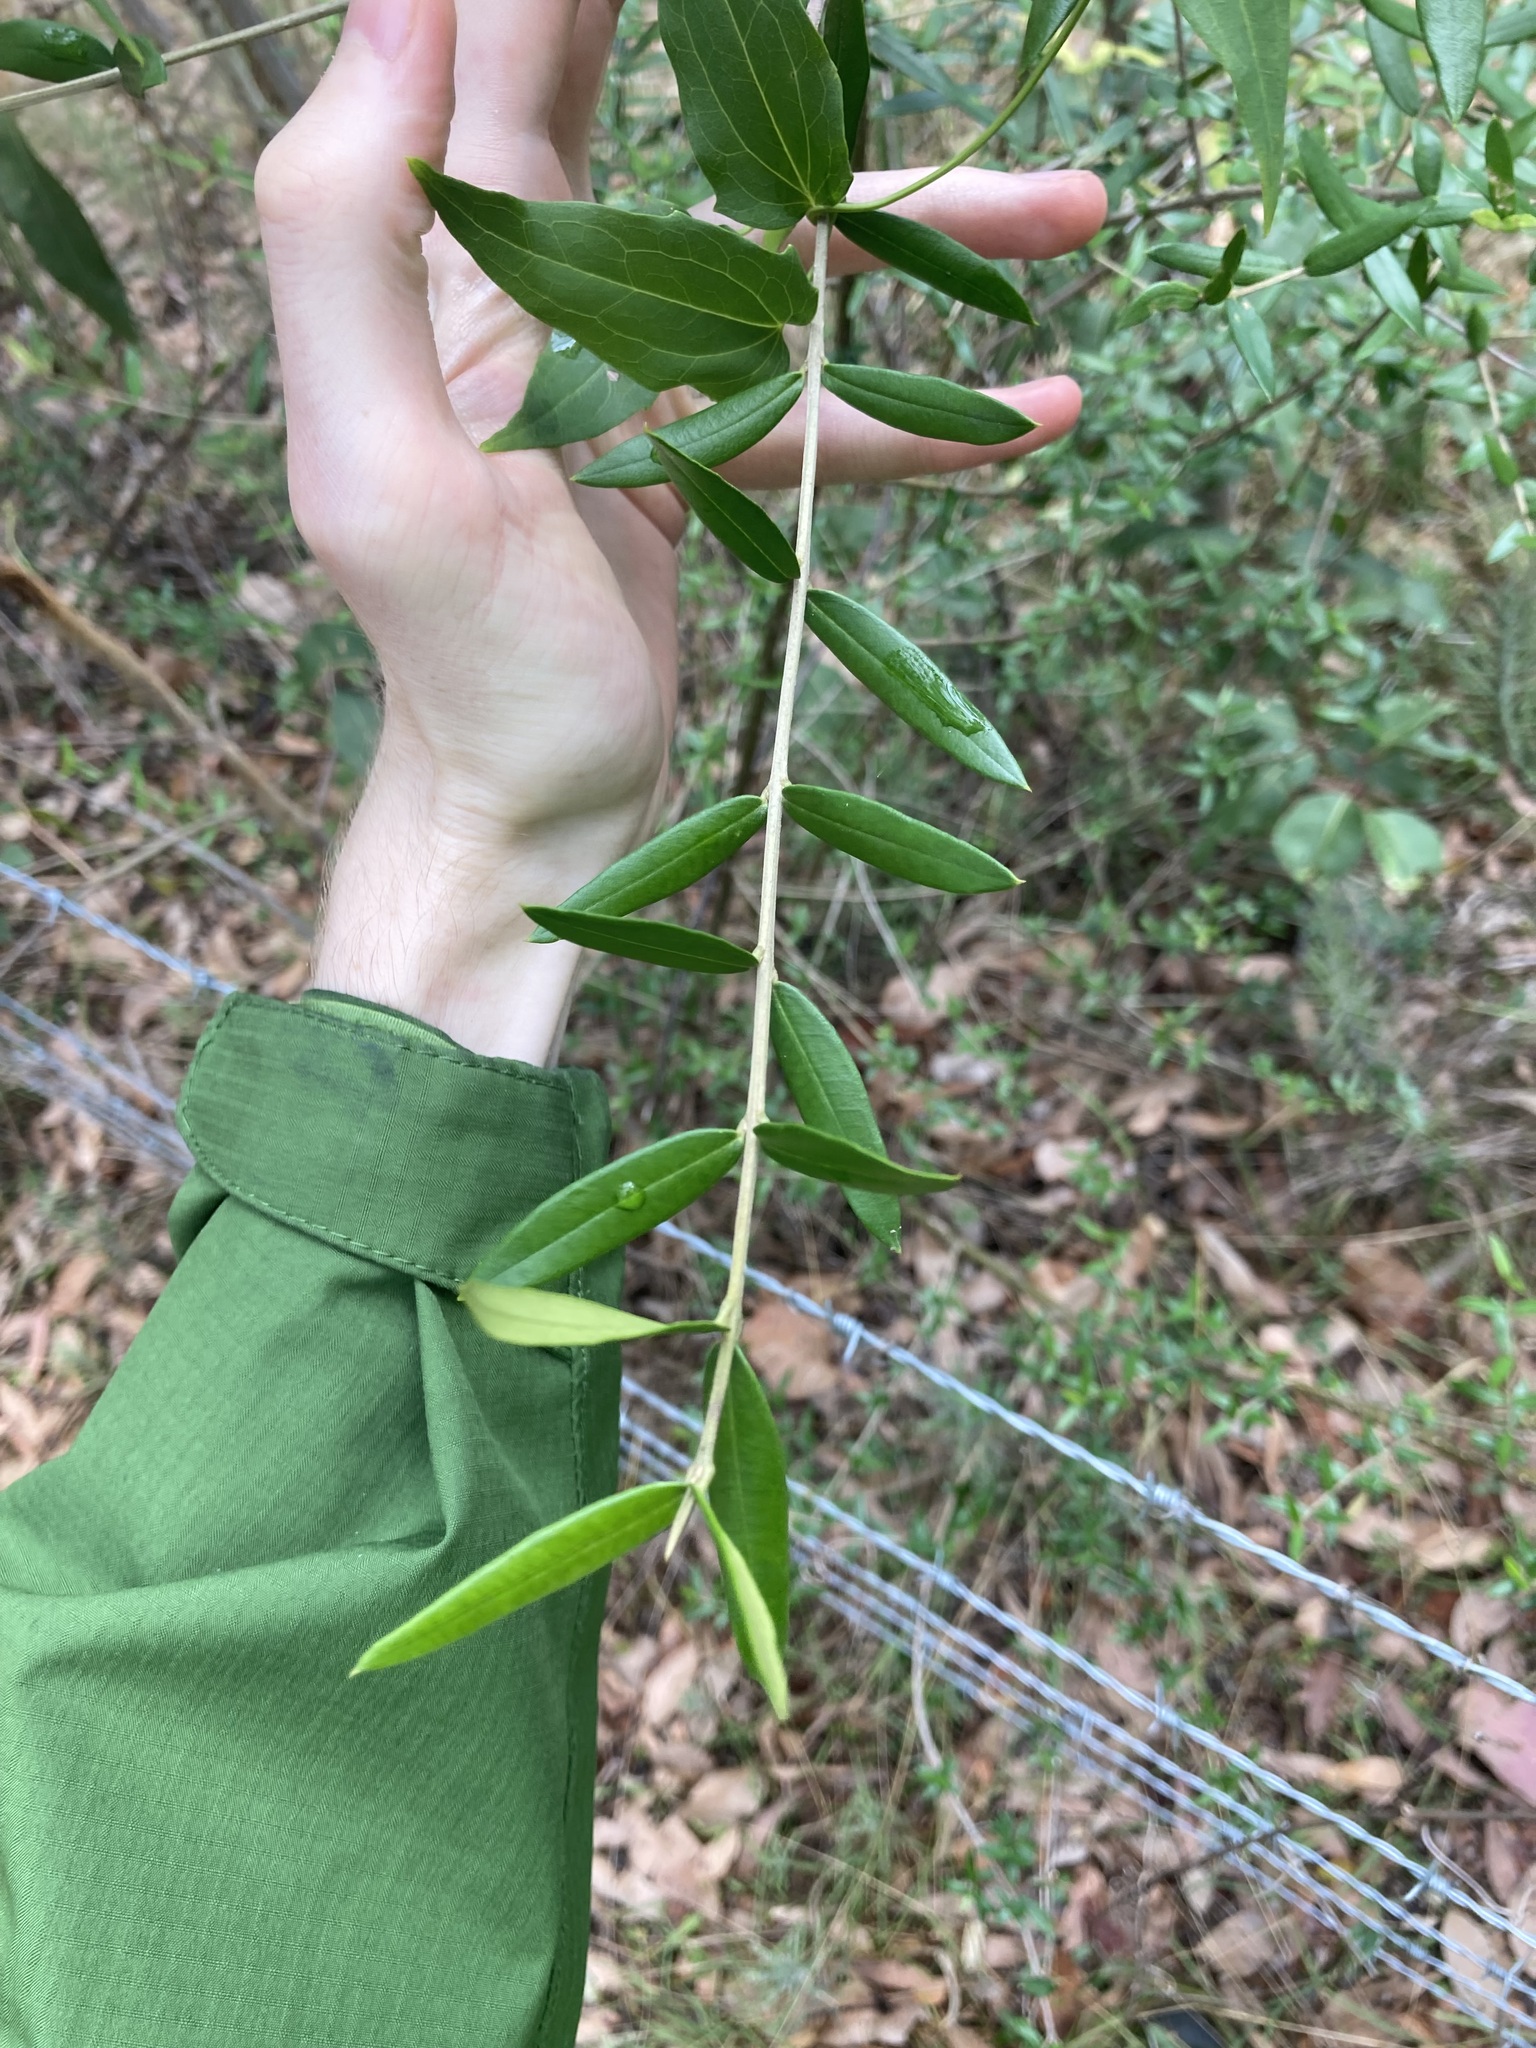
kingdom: Plantae
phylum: Tracheophyta
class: Magnoliopsida
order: Lamiales
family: Oleaceae
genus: Olea
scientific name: Olea europaea
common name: Olive
